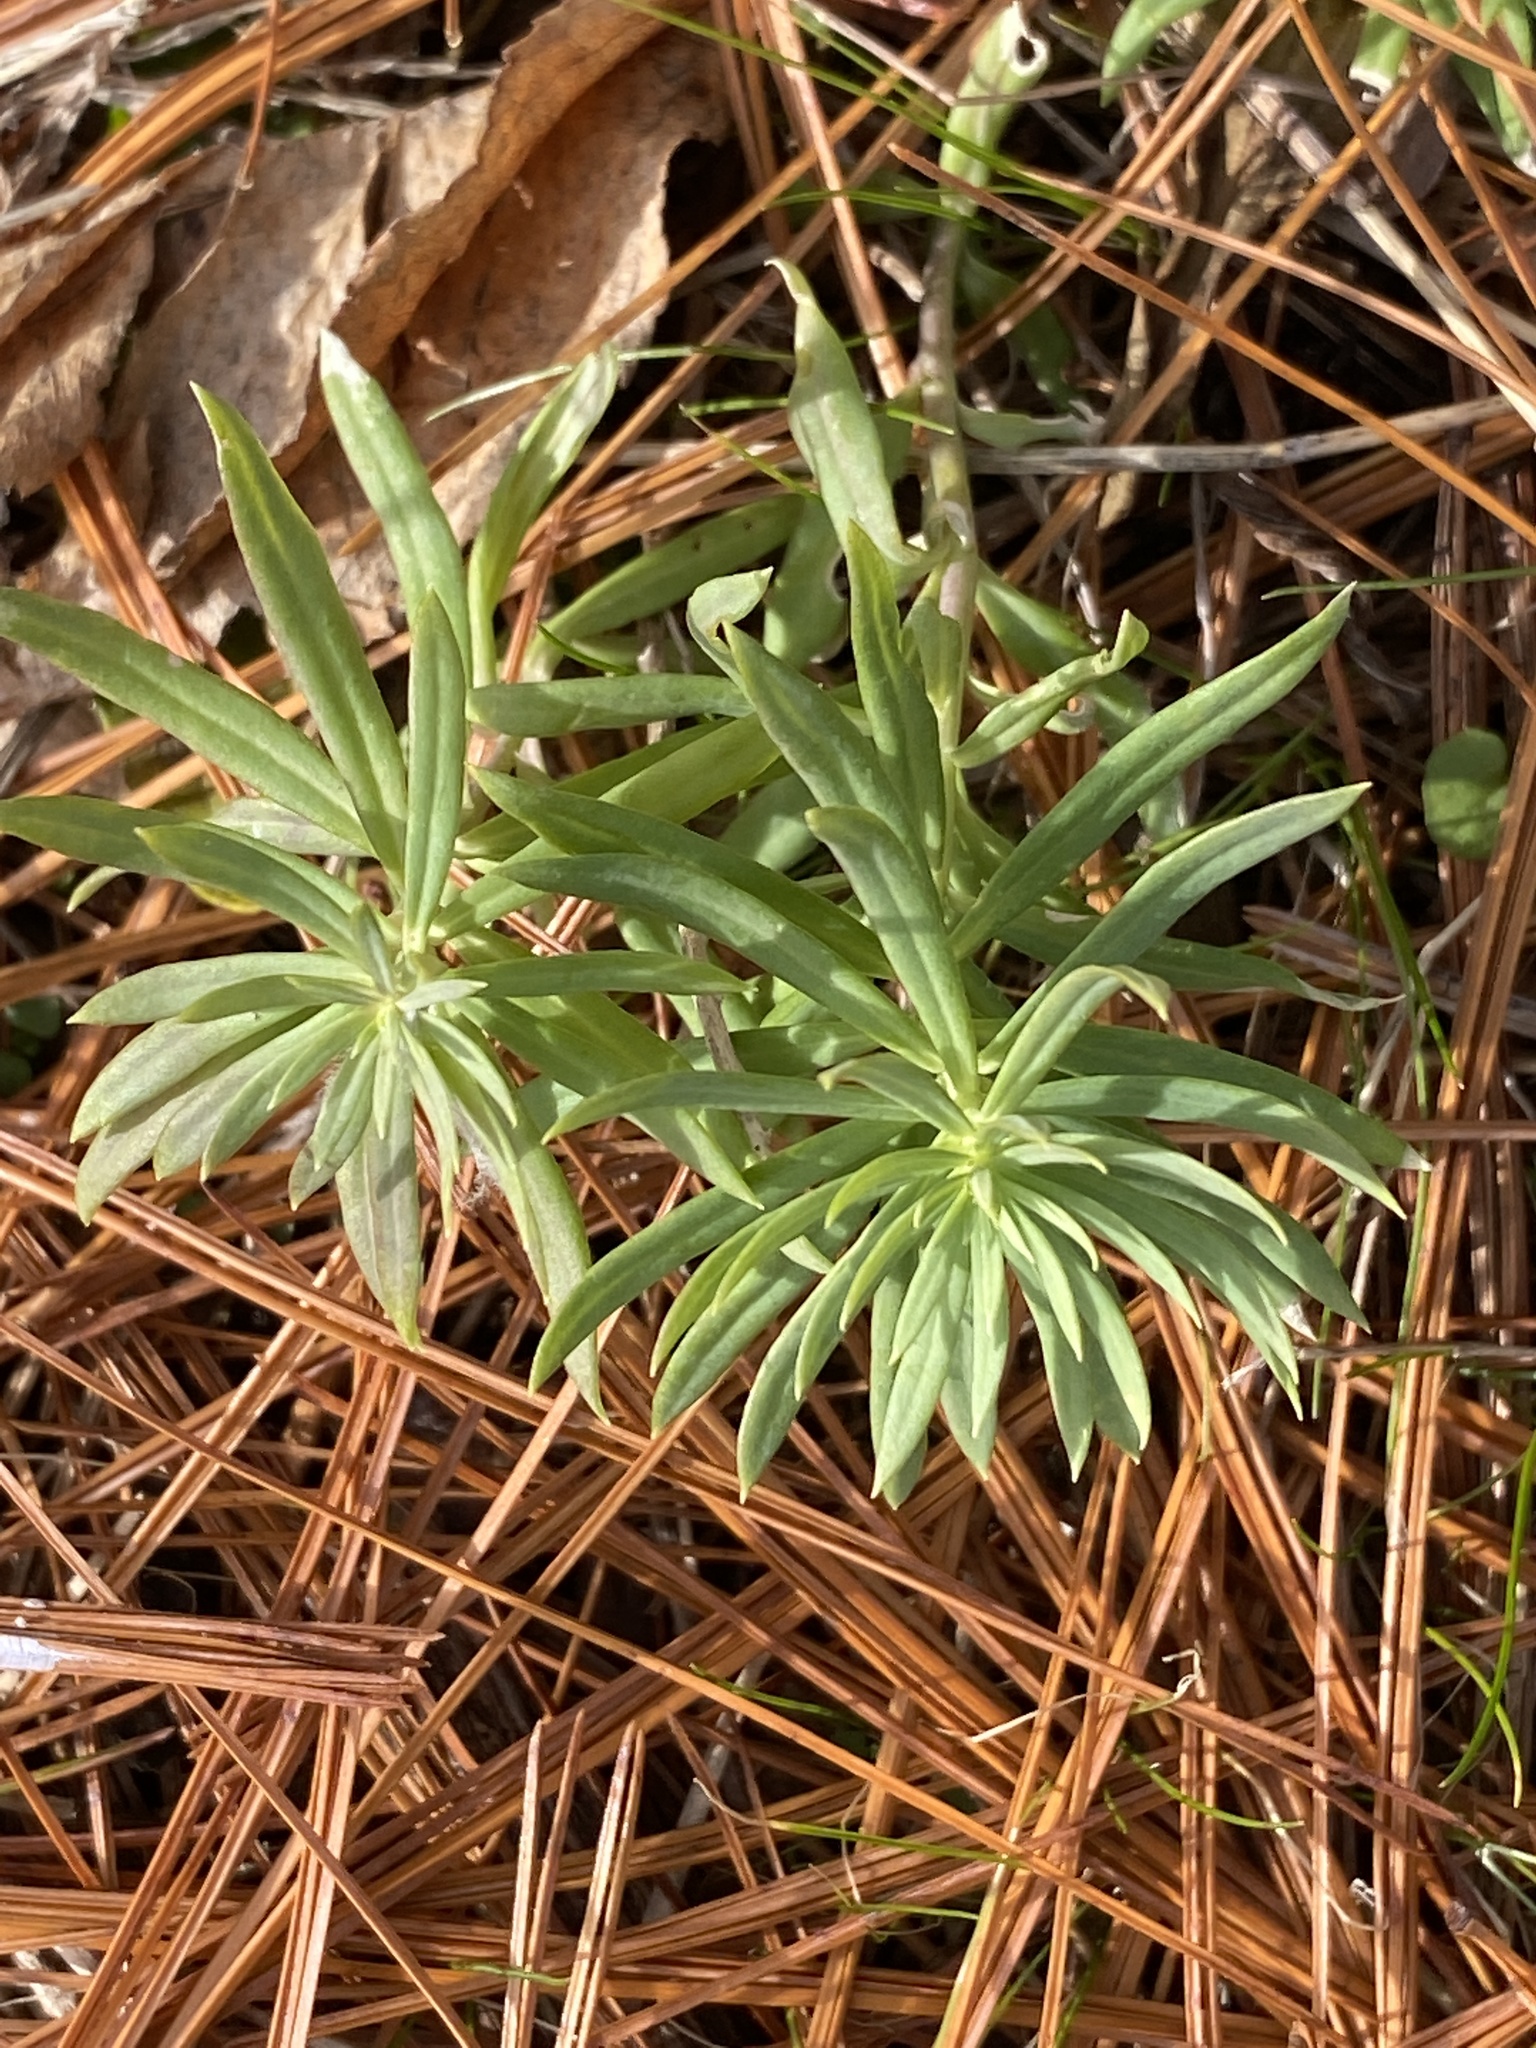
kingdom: Plantae
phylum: Tracheophyta
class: Magnoliopsida
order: Lamiales
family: Plantaginaceae
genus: Linaria
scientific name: Linaria vulgaris
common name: Butter and eggs
